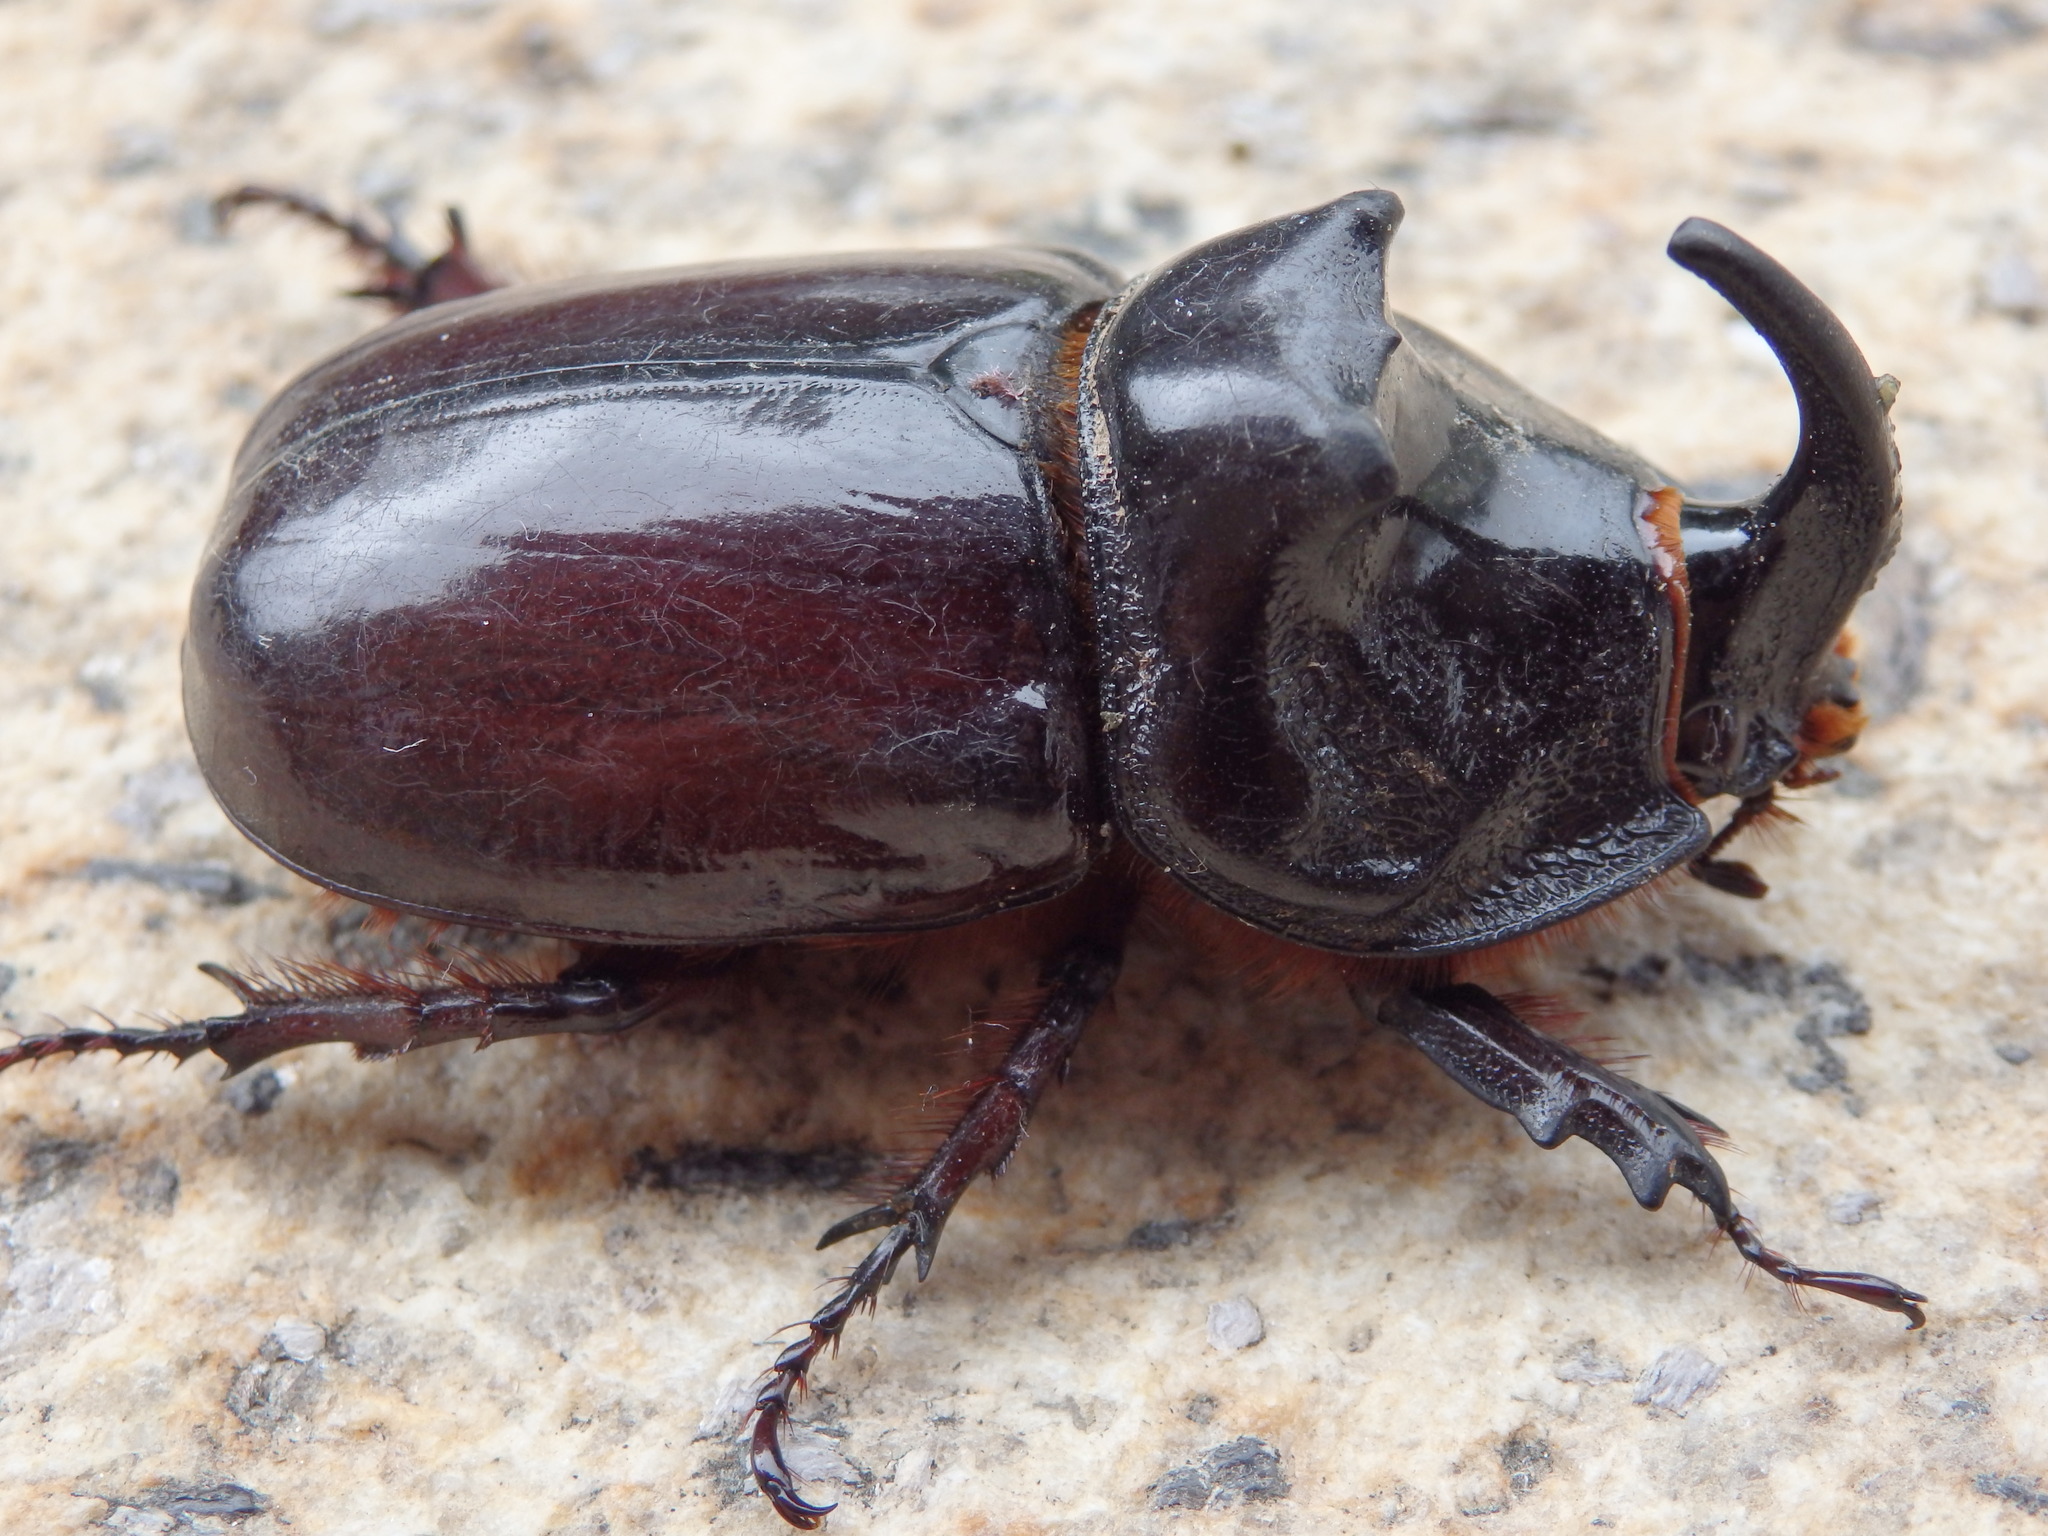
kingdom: Animalia
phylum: Arthropoda
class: Insecta
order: Coleoptera
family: Scarabaeidae
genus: Oryctes
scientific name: Oryctes nasicornis
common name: European rhinoceros beetle
